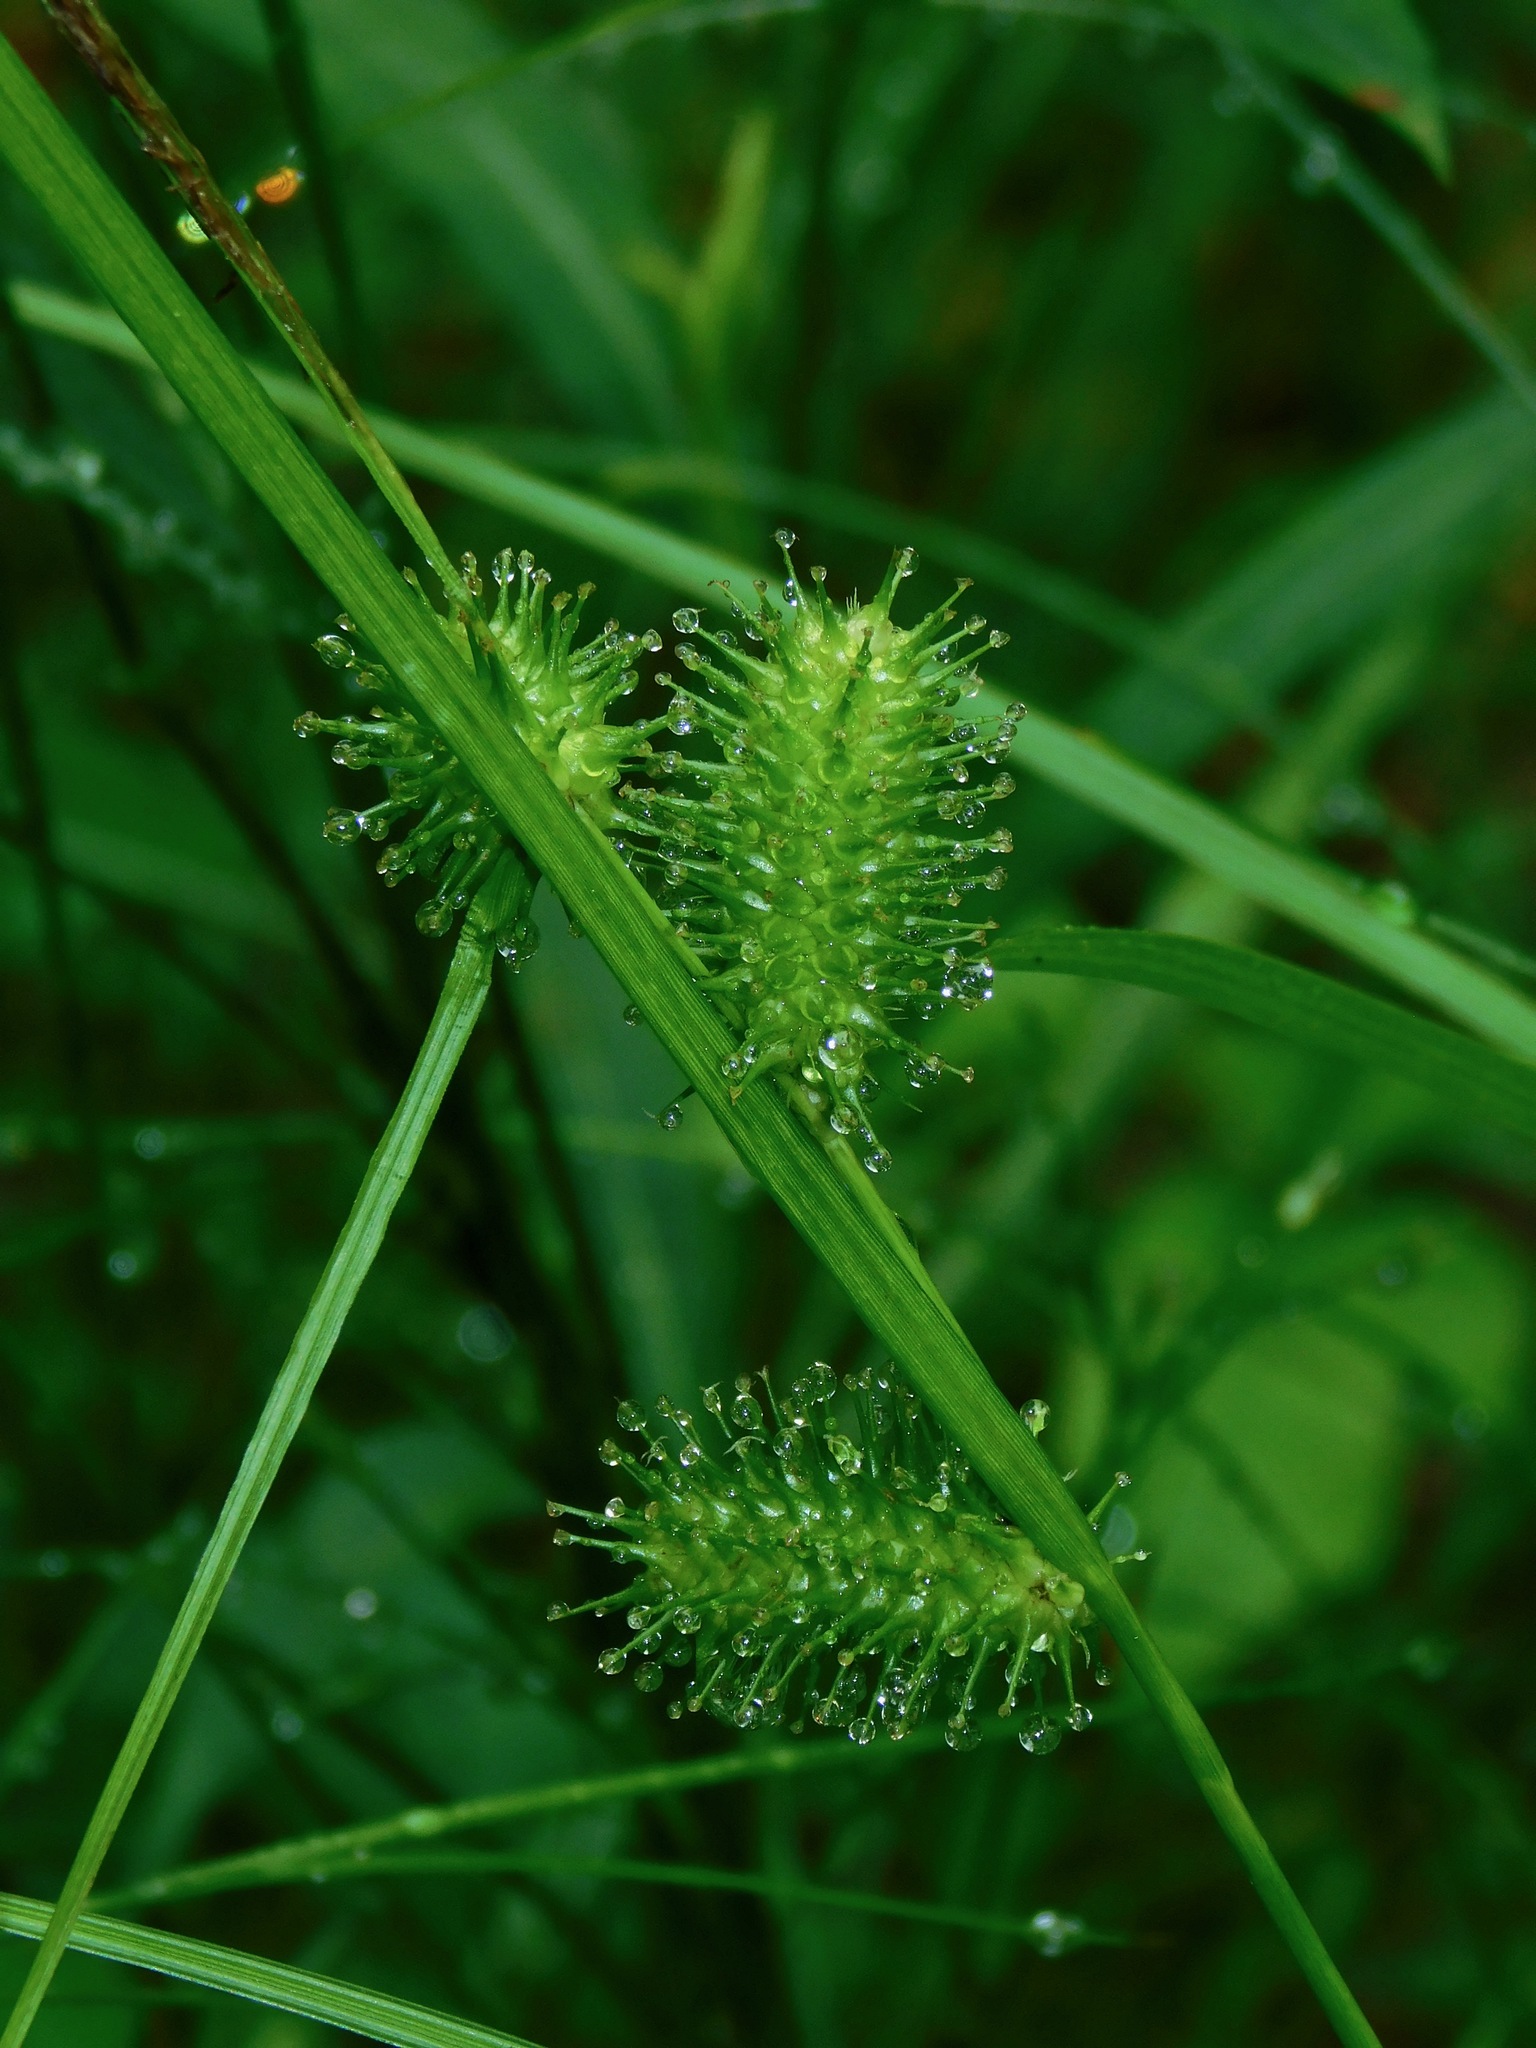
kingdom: Plantae
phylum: Tracheophyta
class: Liliopsida
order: Poales
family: Cyperaceae
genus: Carex
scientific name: Carex lurida
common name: Sallow sedge
